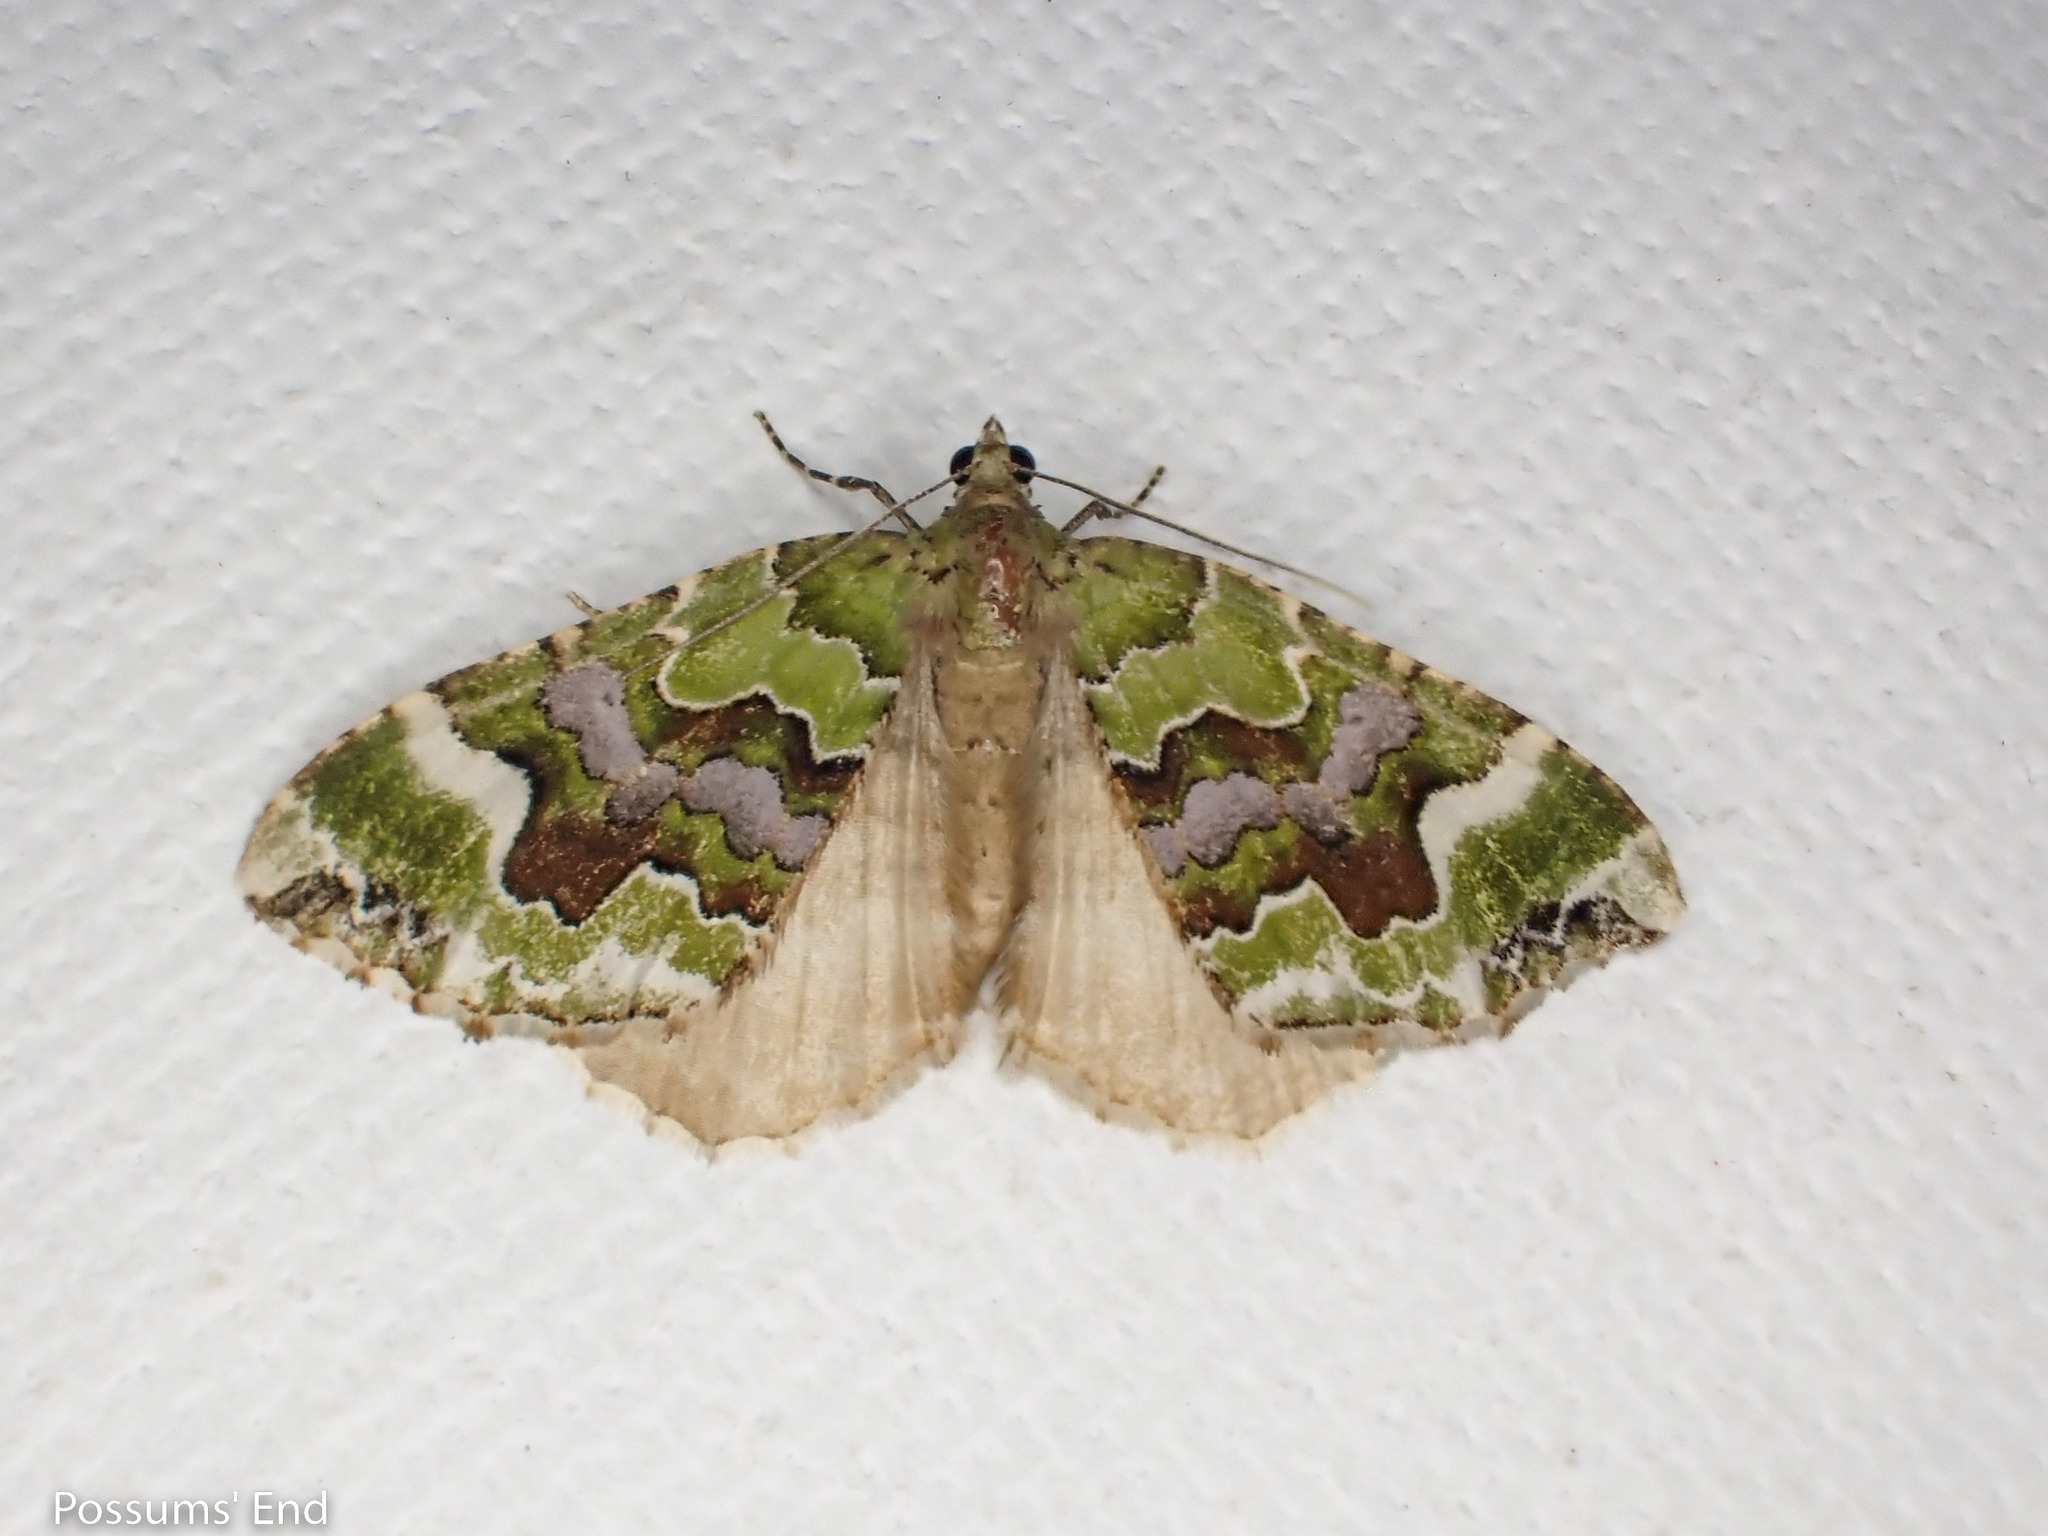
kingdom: Animalia
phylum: Arthropoda
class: Insecta
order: Lepidoptera
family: Geometridae
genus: Hydriomena
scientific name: Hydriomena purpurifera
